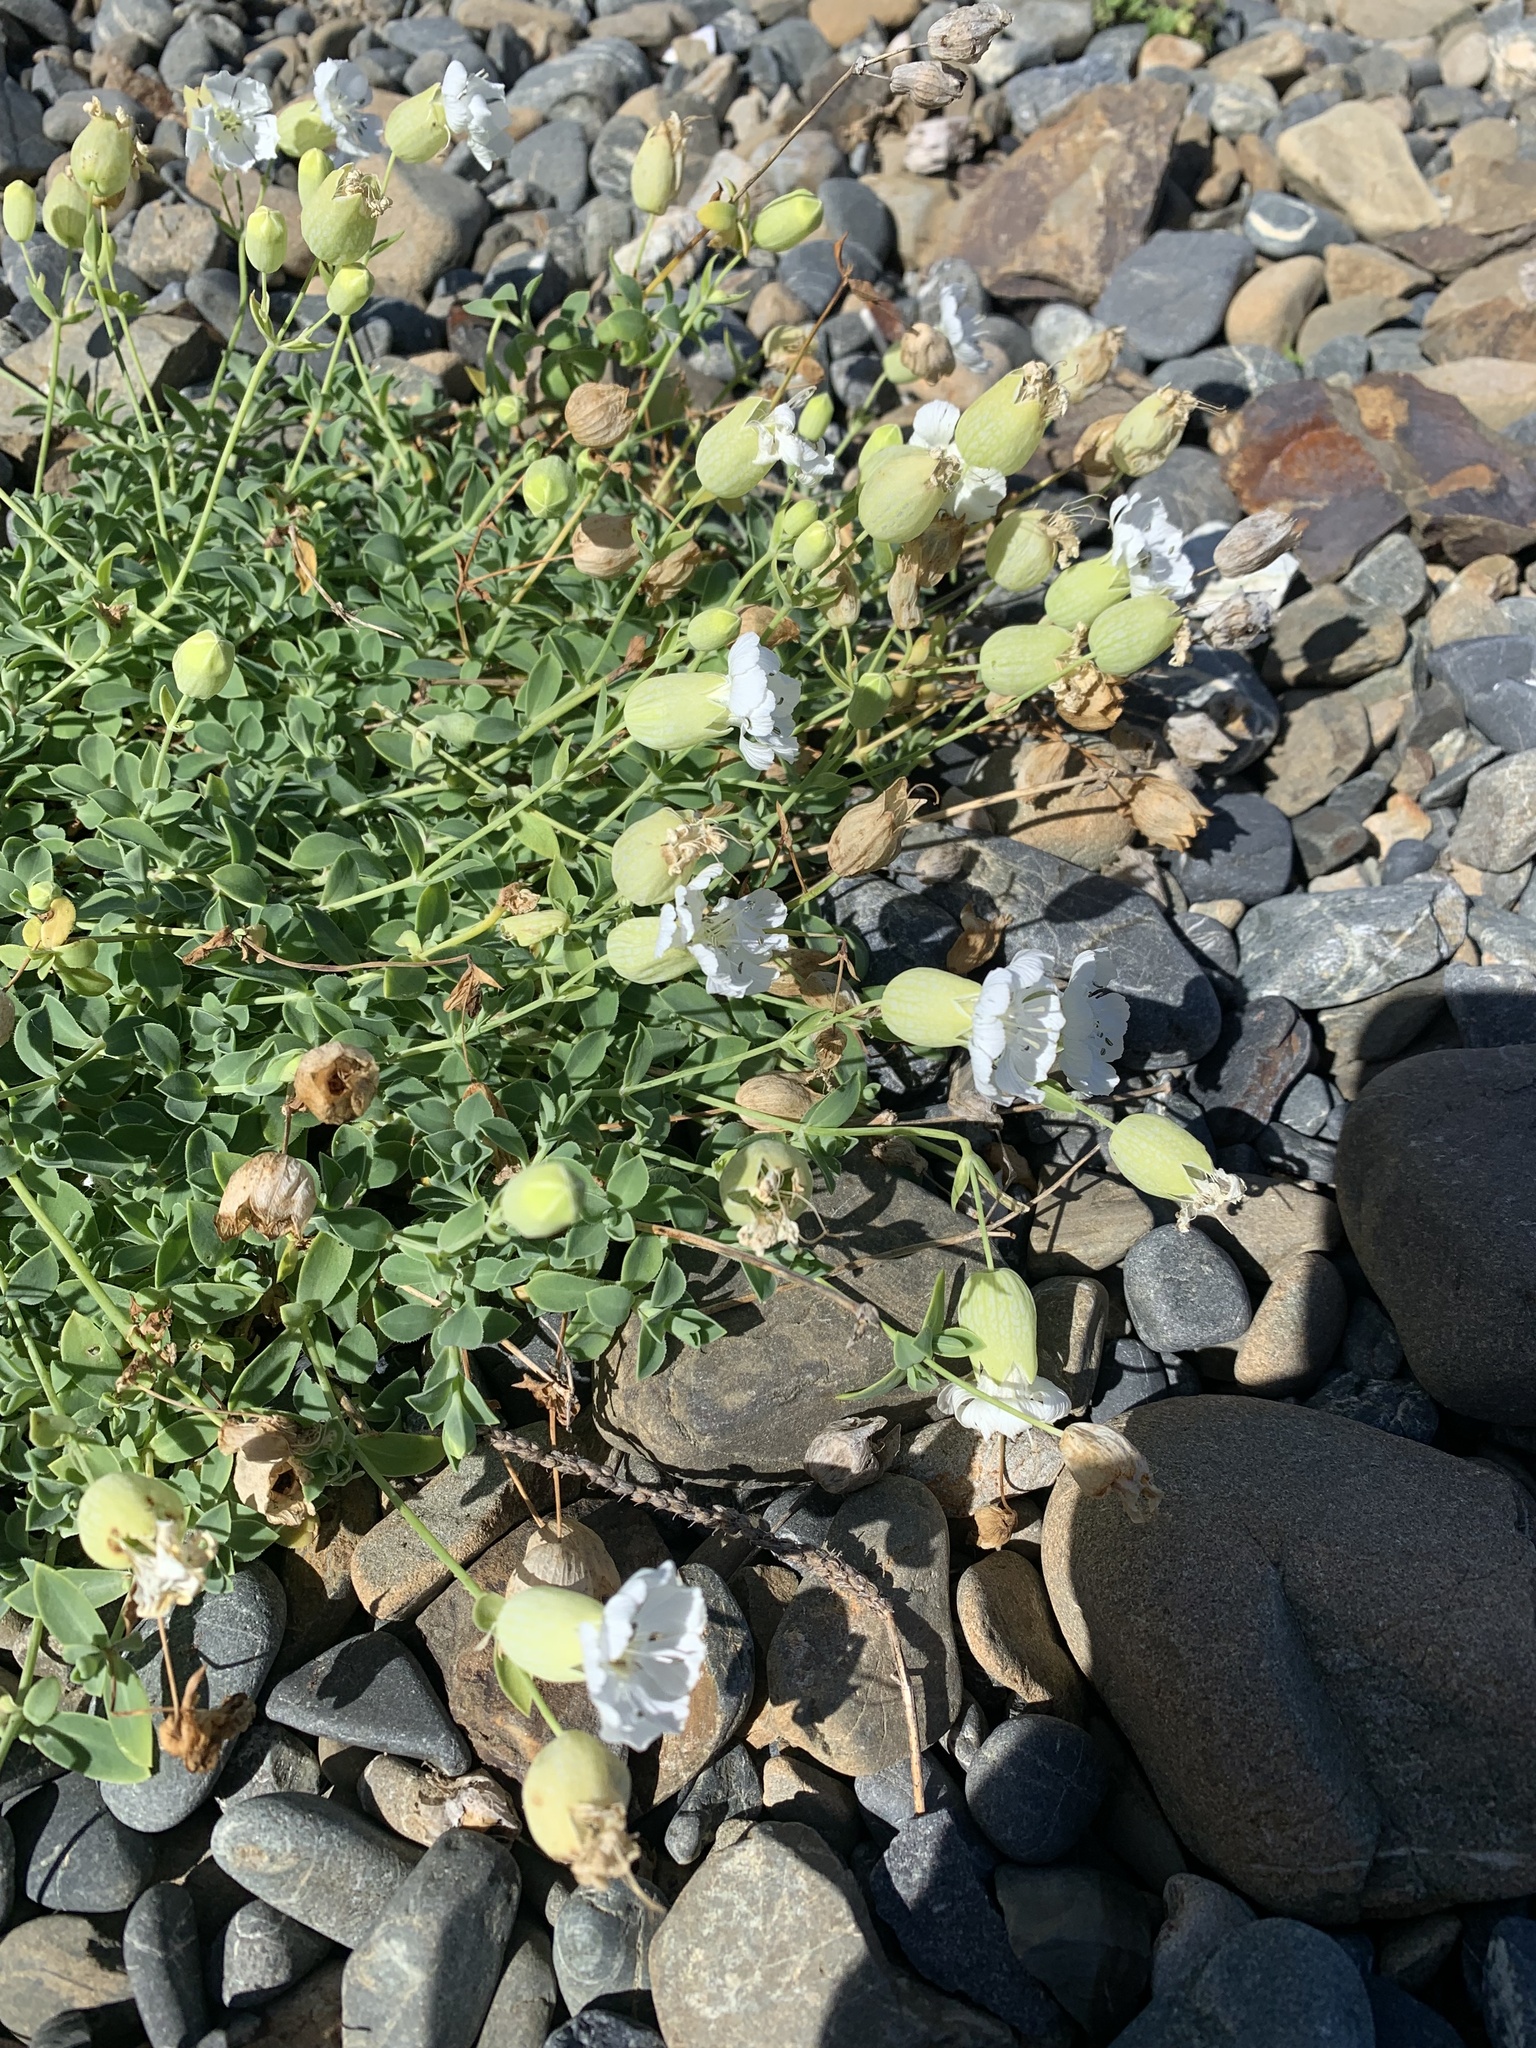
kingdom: Plantae
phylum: Tracheophyta
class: Magnoliopsida
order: Caryophyllales
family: Caryophyllaceae
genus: Silene
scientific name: Silene uniflora
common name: Sea campion
